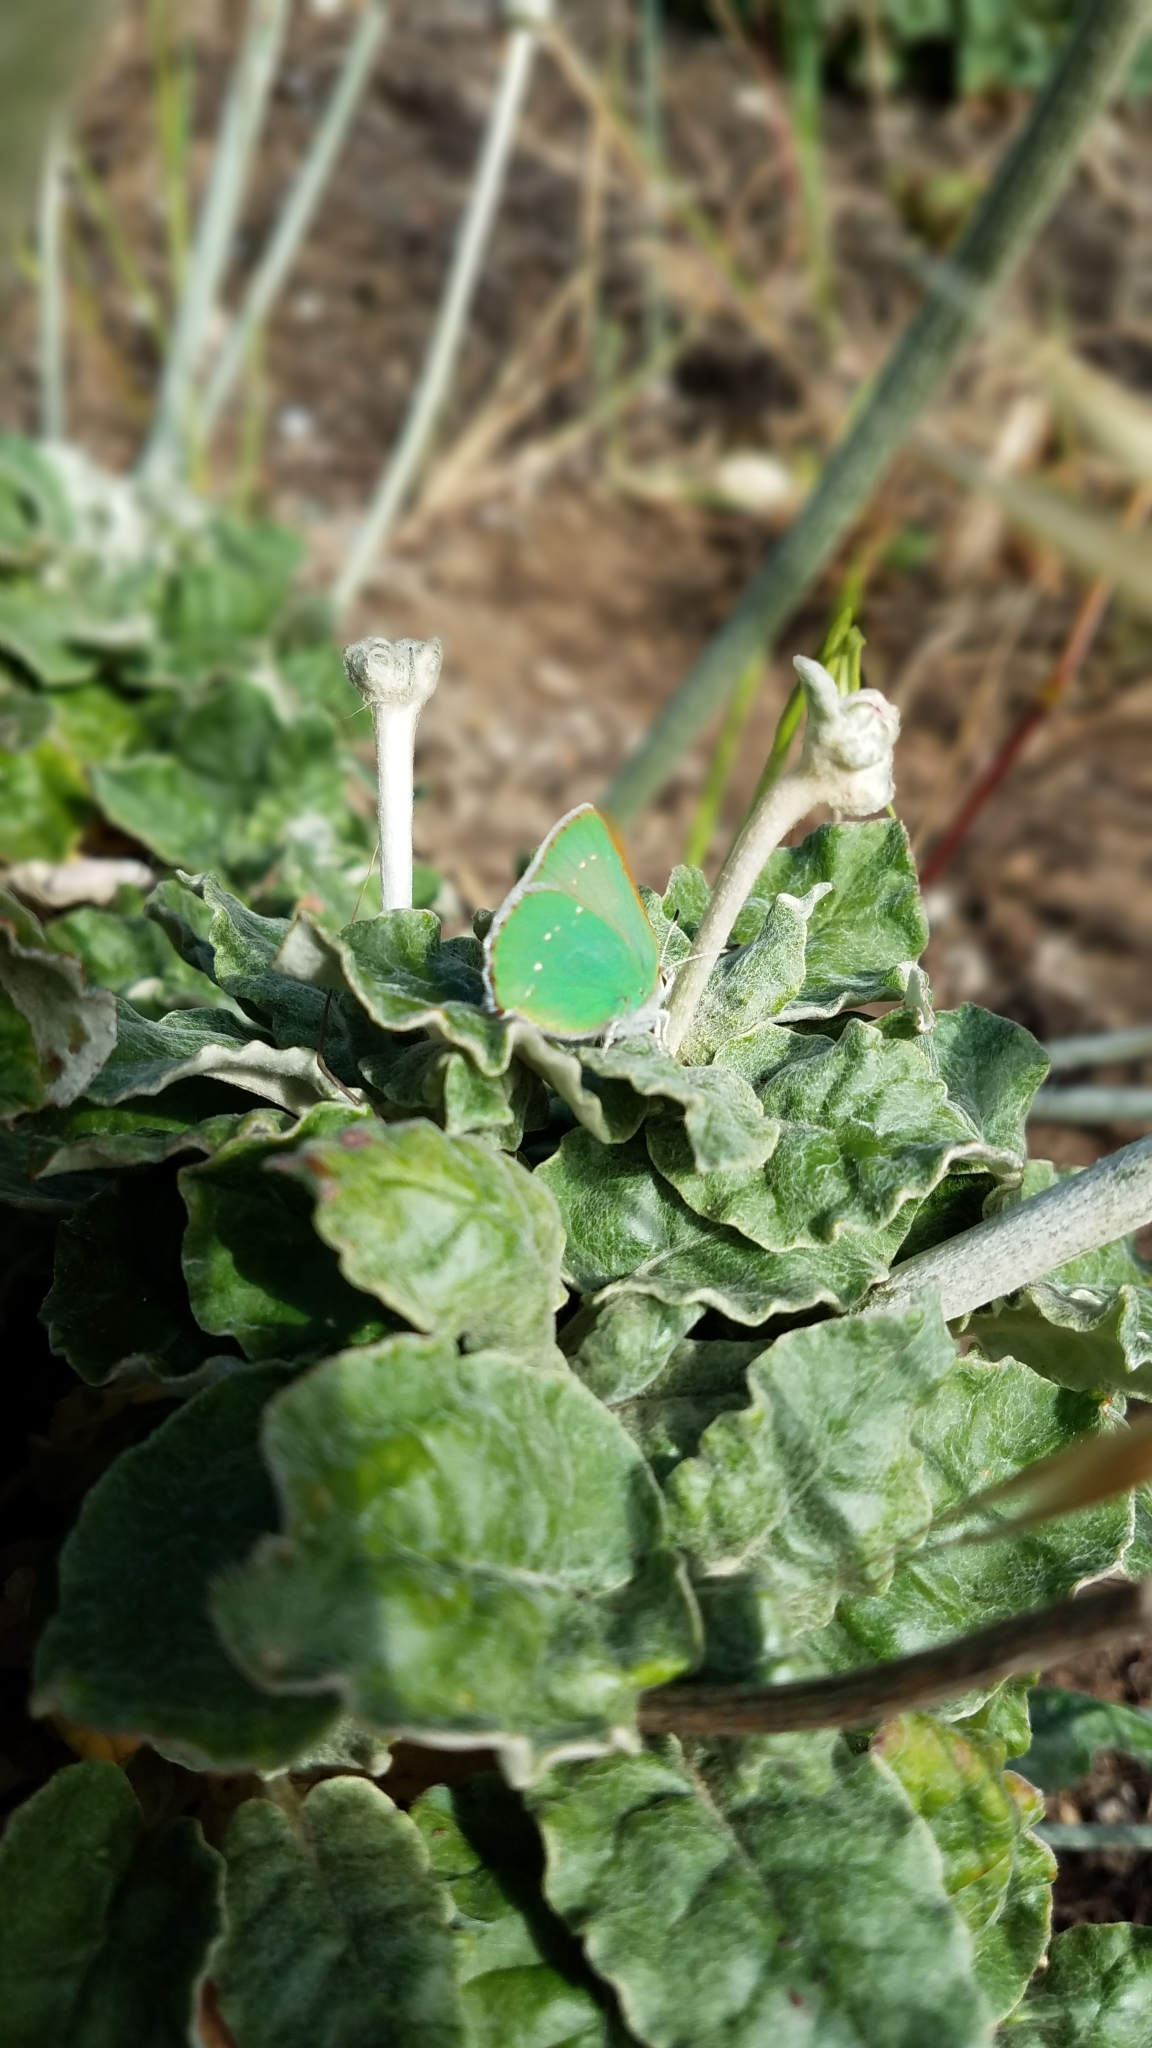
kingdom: Animalia
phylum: Arthropoda
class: Insecta
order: Lepidoptera
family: Lycaenidae
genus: Callophrys
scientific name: Callophrys viridis
